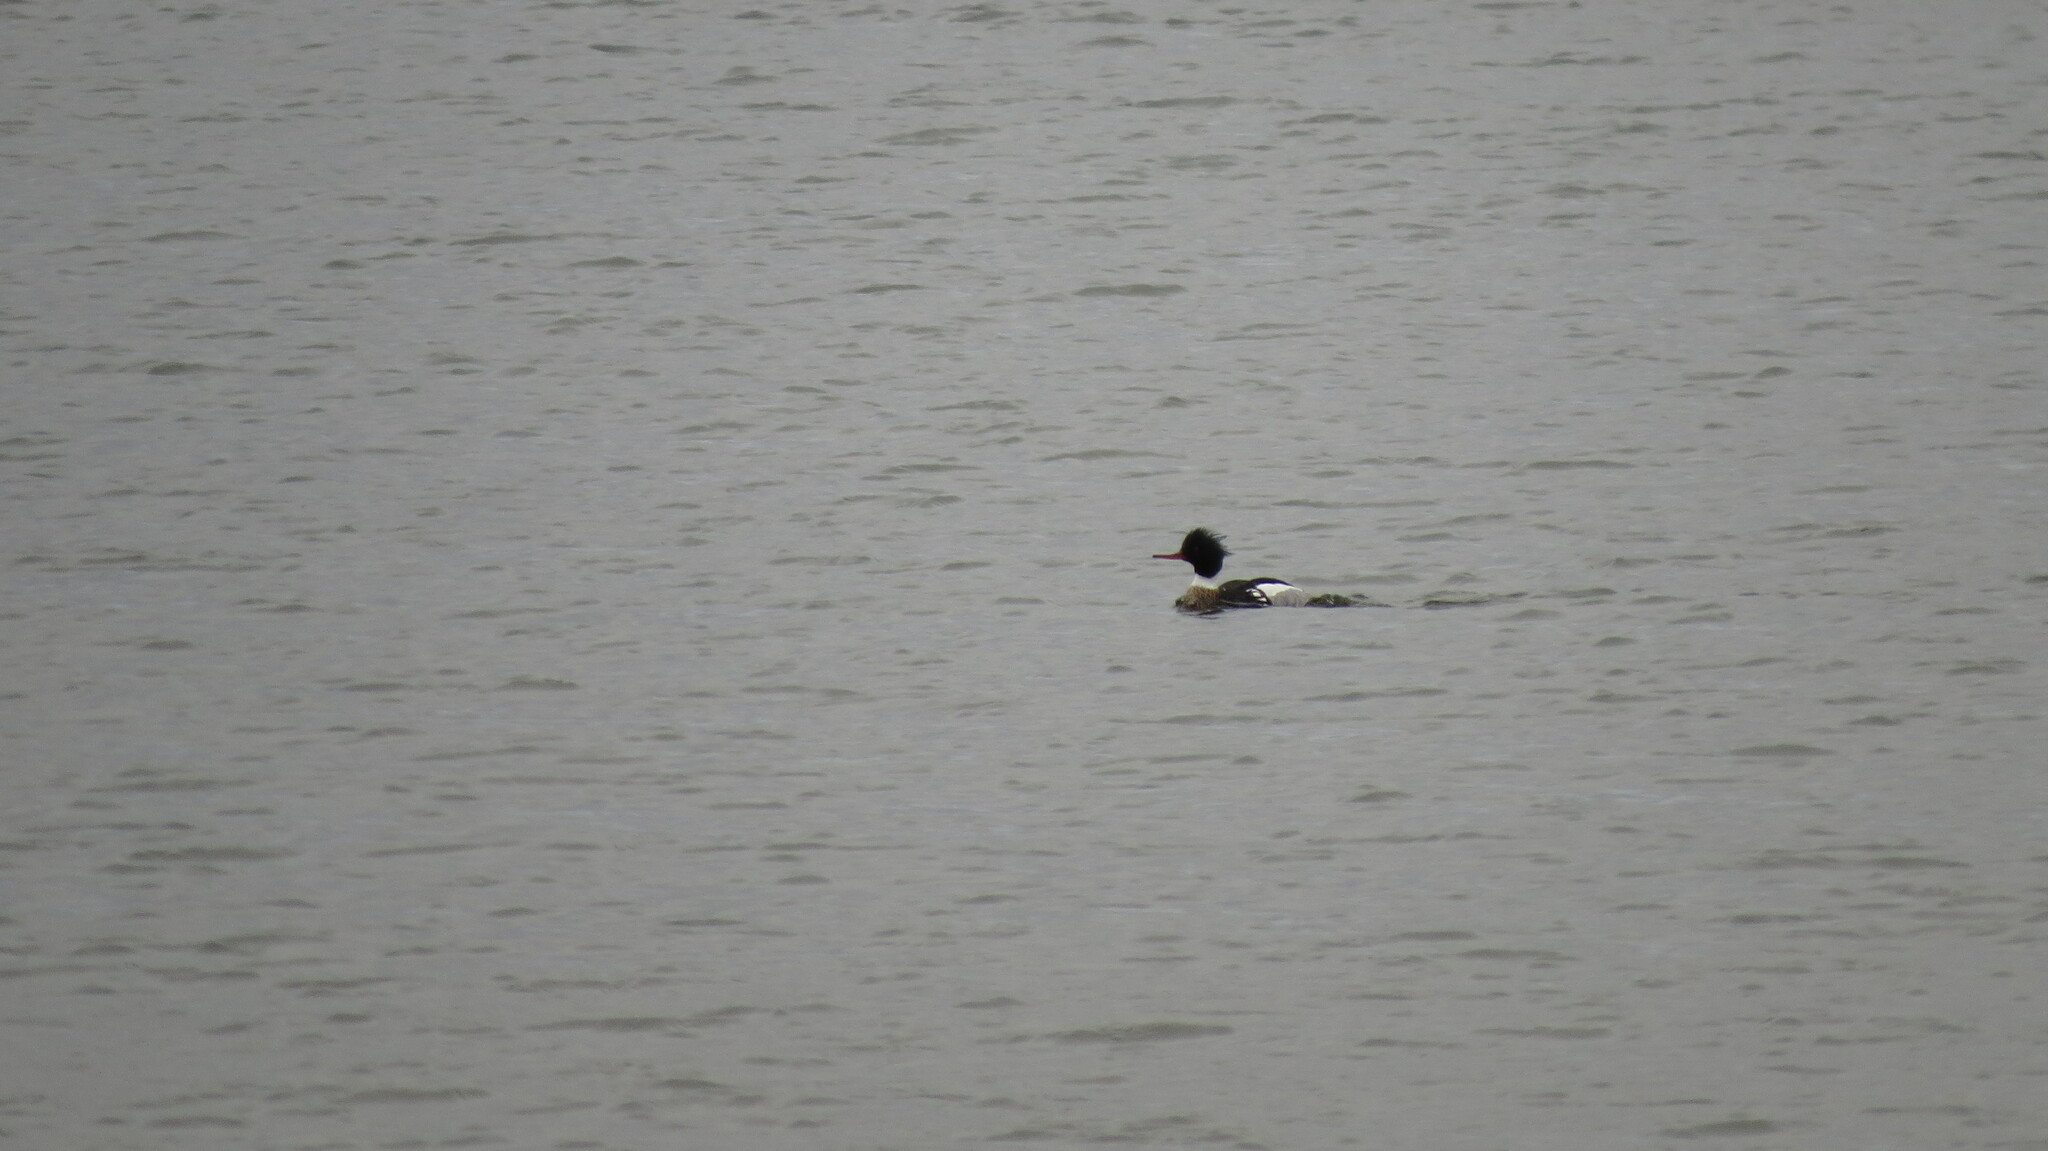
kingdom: Animalia
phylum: Chordata
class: Aves
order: Anseriformes
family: Anatidae
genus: Mergus
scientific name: Mergus serrator
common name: Red-breasted merganser
